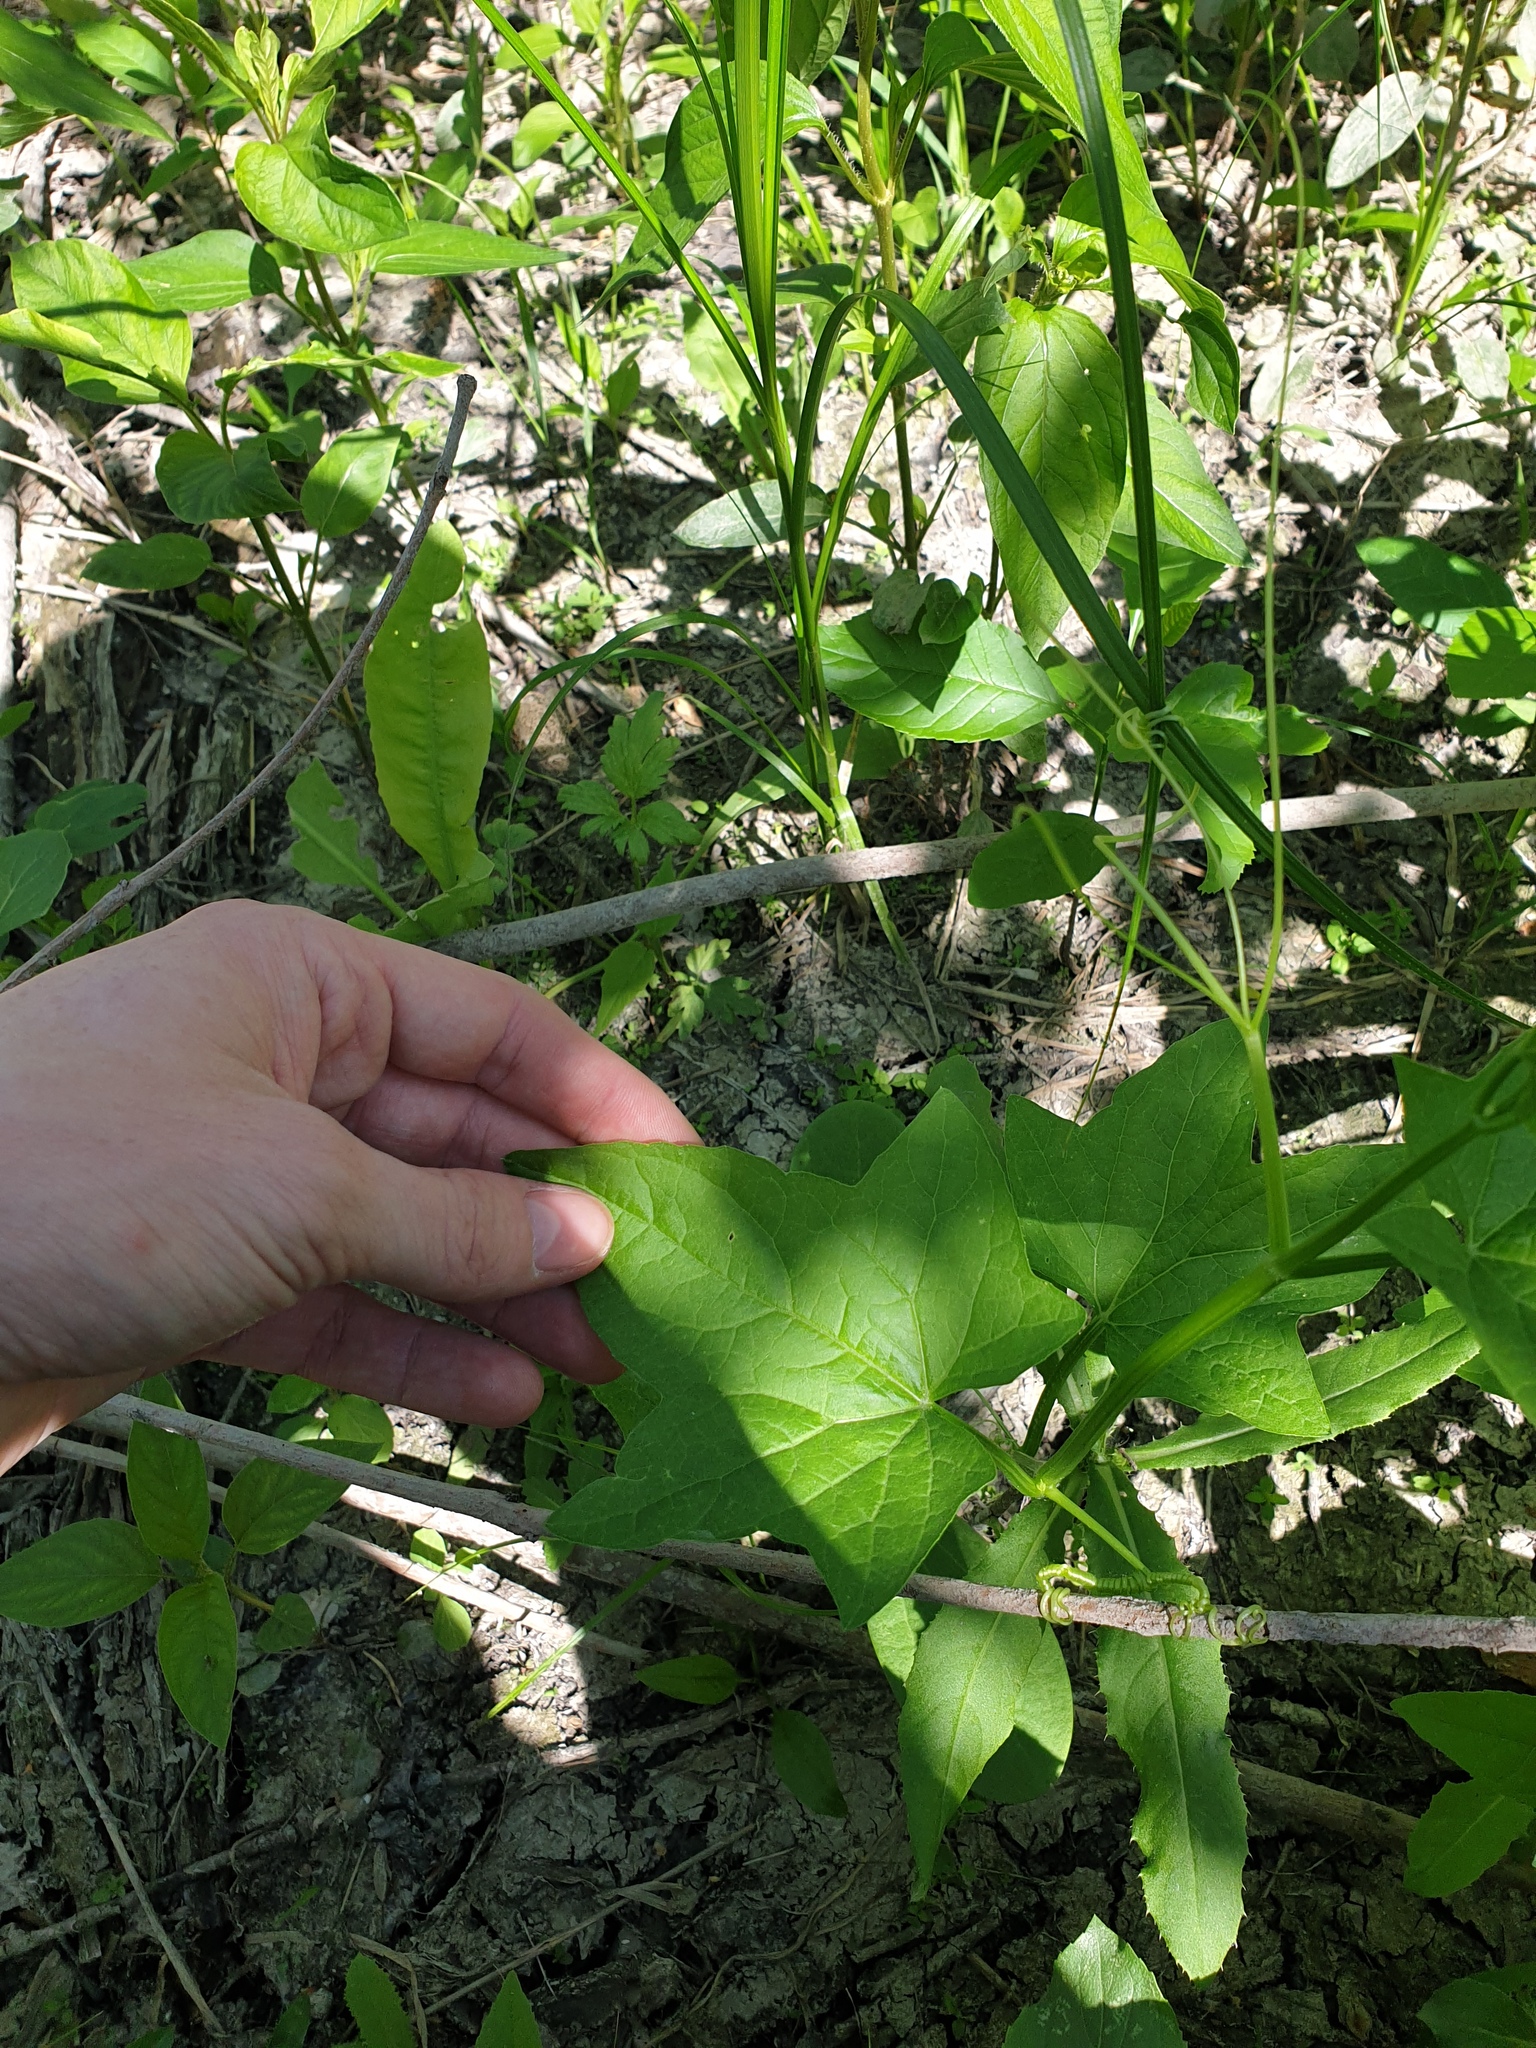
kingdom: Plantae
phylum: Tracheophyta
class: Magnoliopsida
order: Cucurbitales
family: Cucurbitaceae
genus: Echinocystis
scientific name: Echinocystis lobata
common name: Wild cucumber
